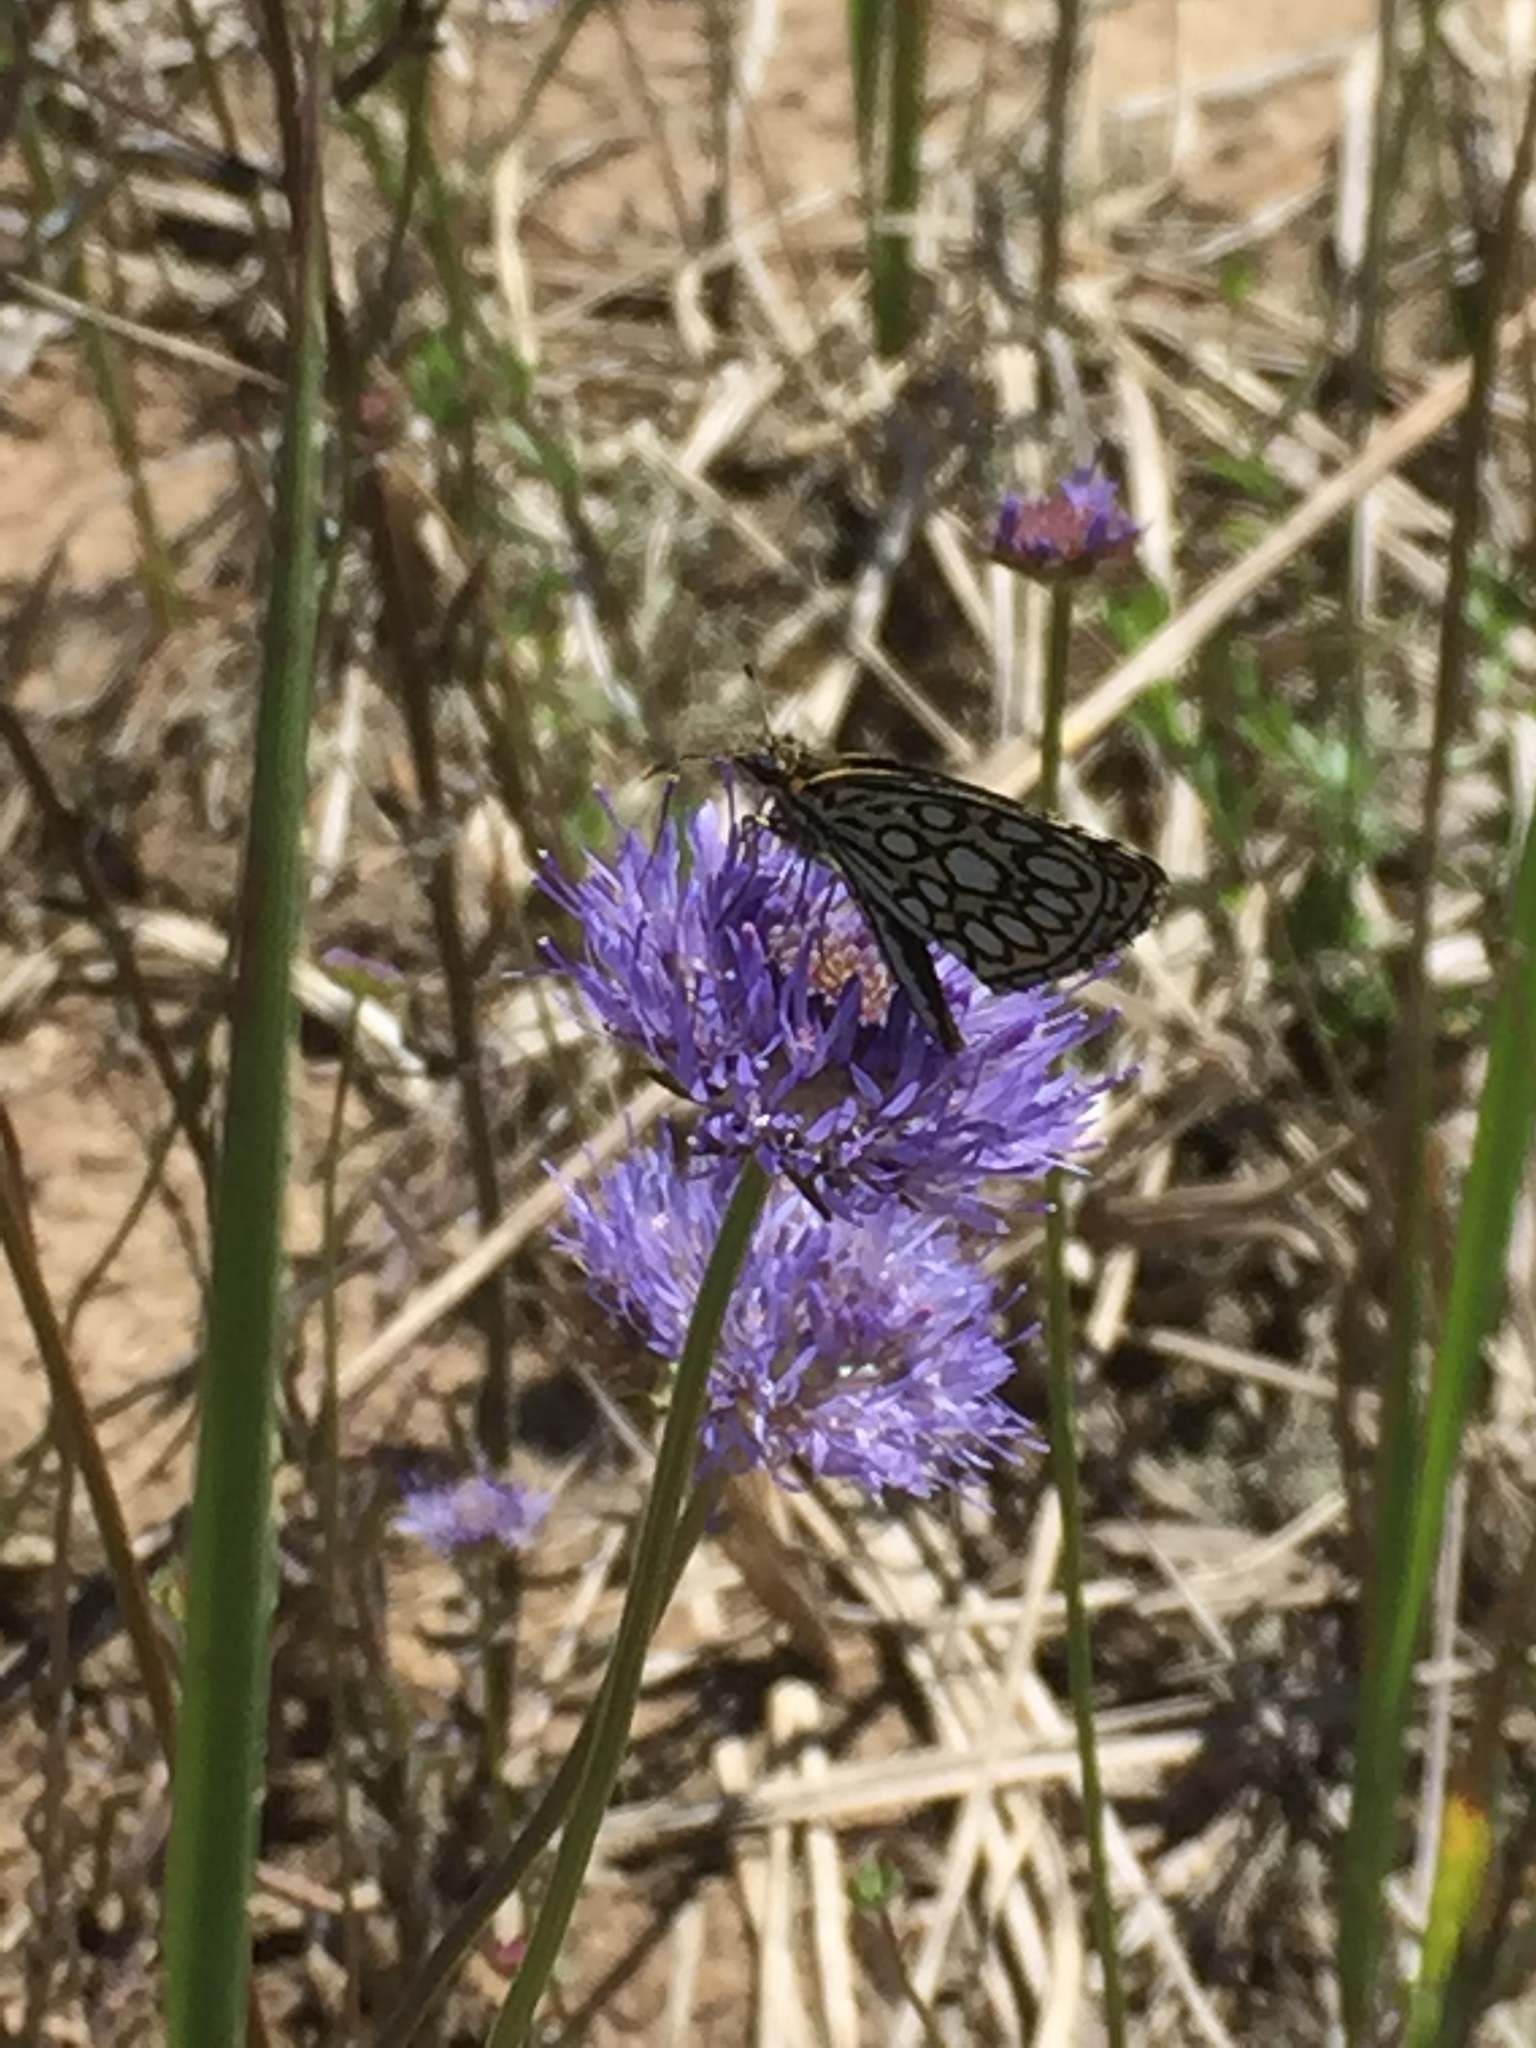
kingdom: Animalia
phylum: Arthropoda
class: Insecta
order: Lepidoptera
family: Hesperiidae
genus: Heteropterus
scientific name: Heteropterus morpheus
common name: Large chequered skipper
